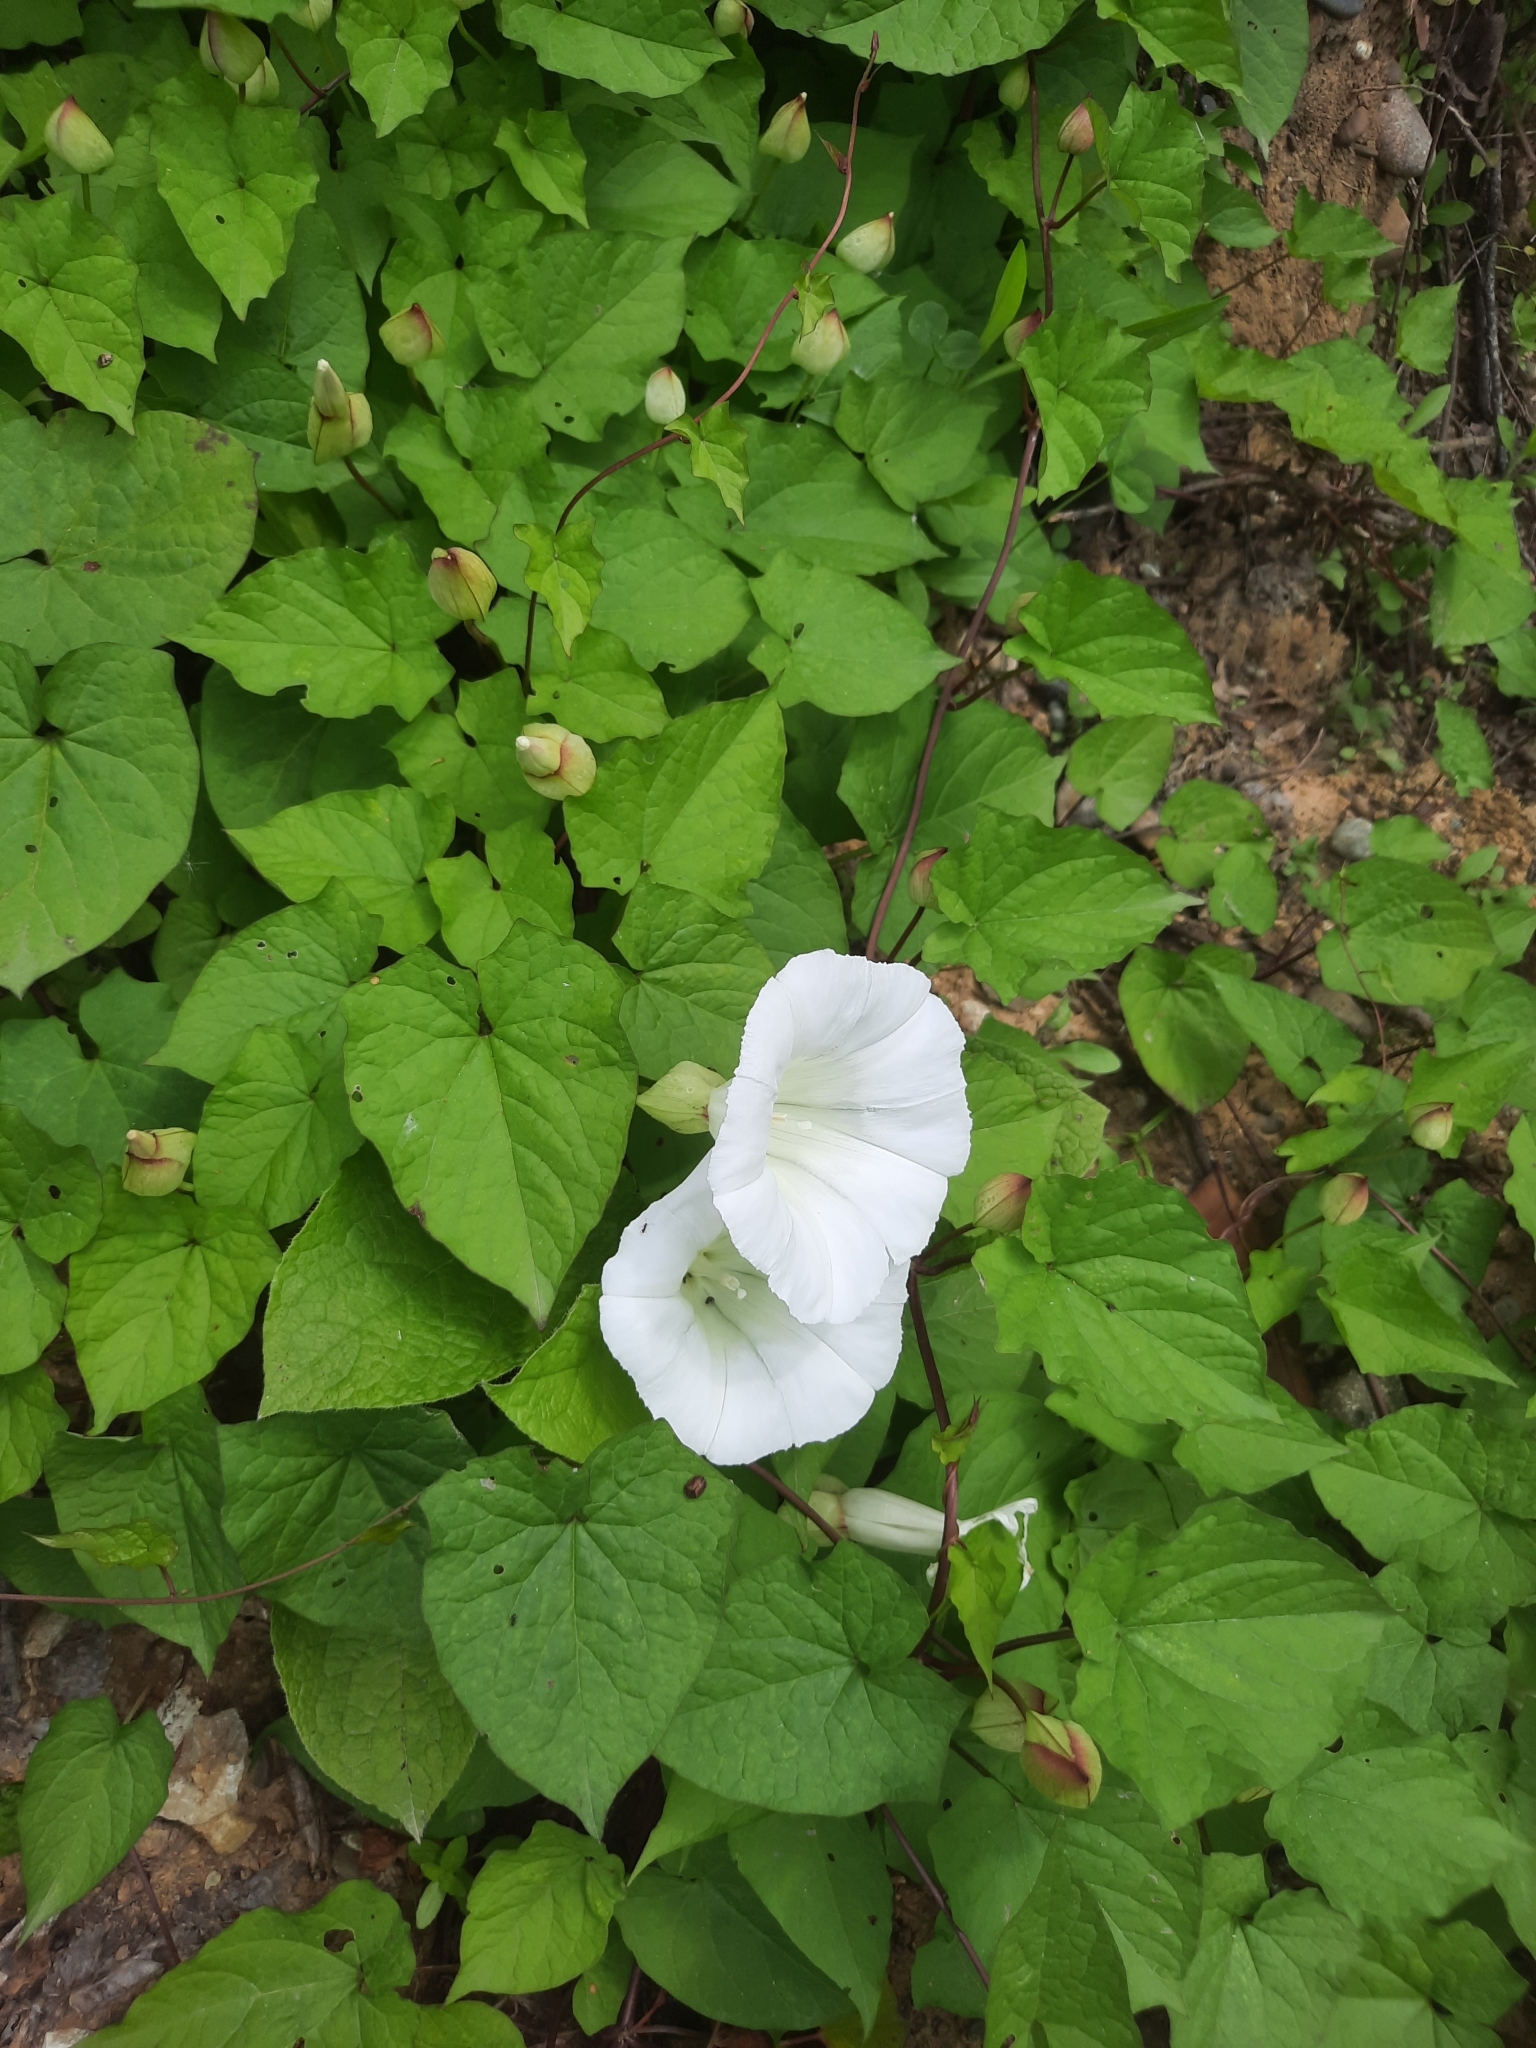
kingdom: Plantae
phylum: Tracheophyta
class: Magnoliopsida
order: Solanales
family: Convolvulaceae
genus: Calystegia
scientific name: Calystegia silvatica
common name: Large bindweed
